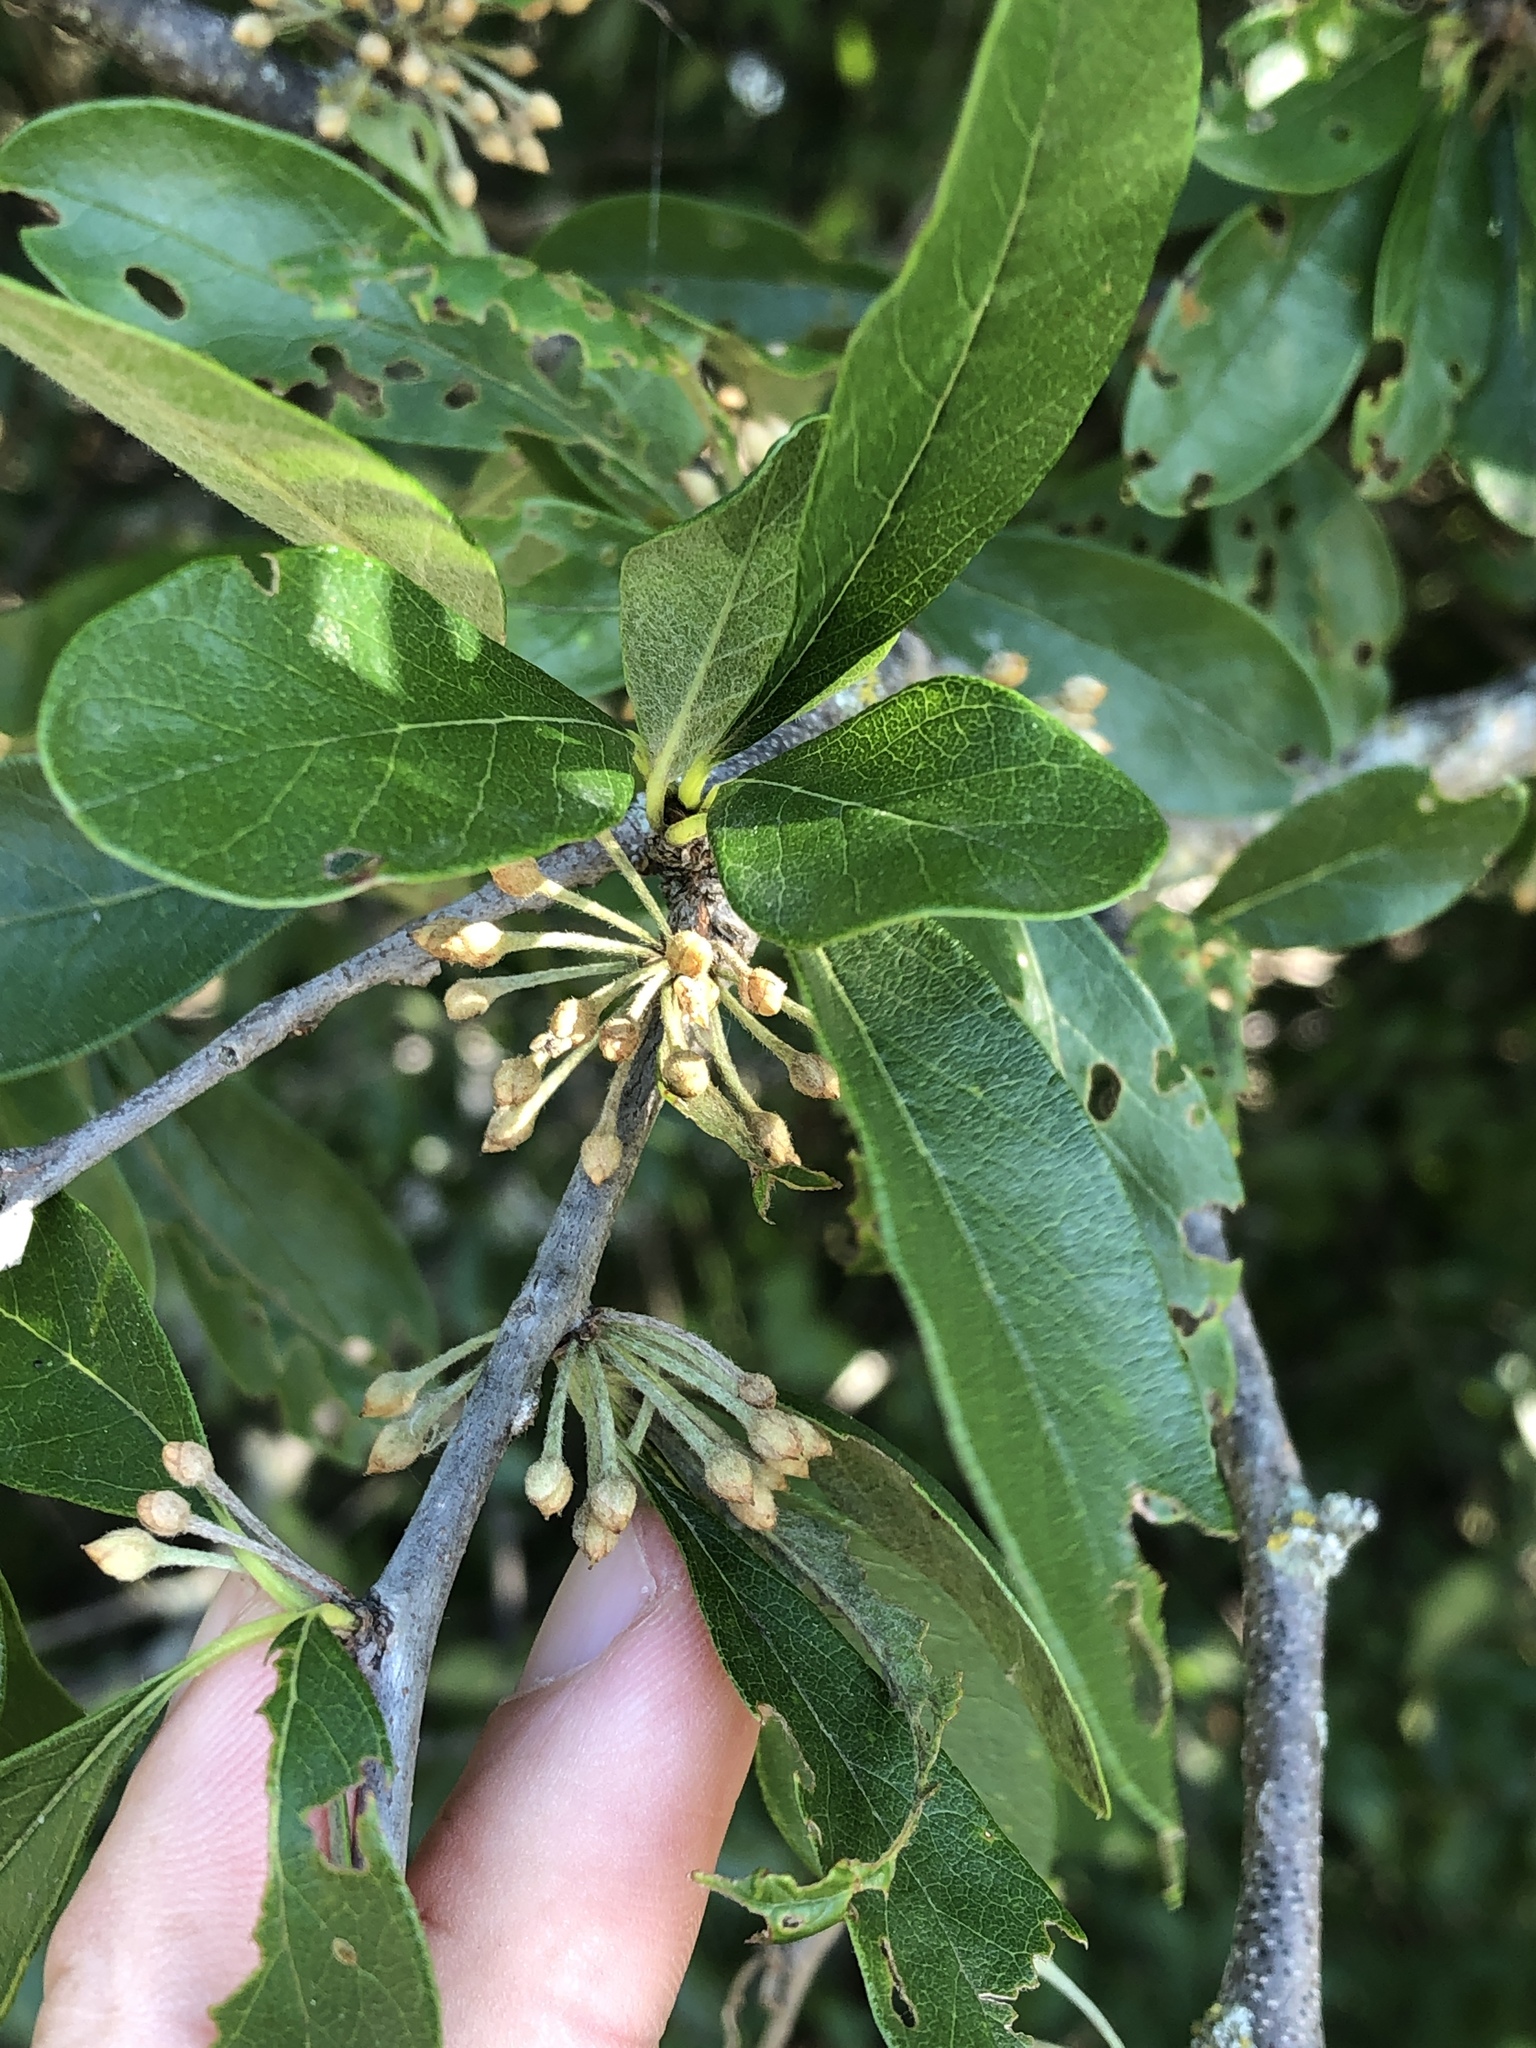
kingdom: Plantae
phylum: Tracheophyta
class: Magnoliopsida
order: Ericales
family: Sapotaceae
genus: Sideroxylon
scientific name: Sideroxylon lanuginosum
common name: Chittamwood
